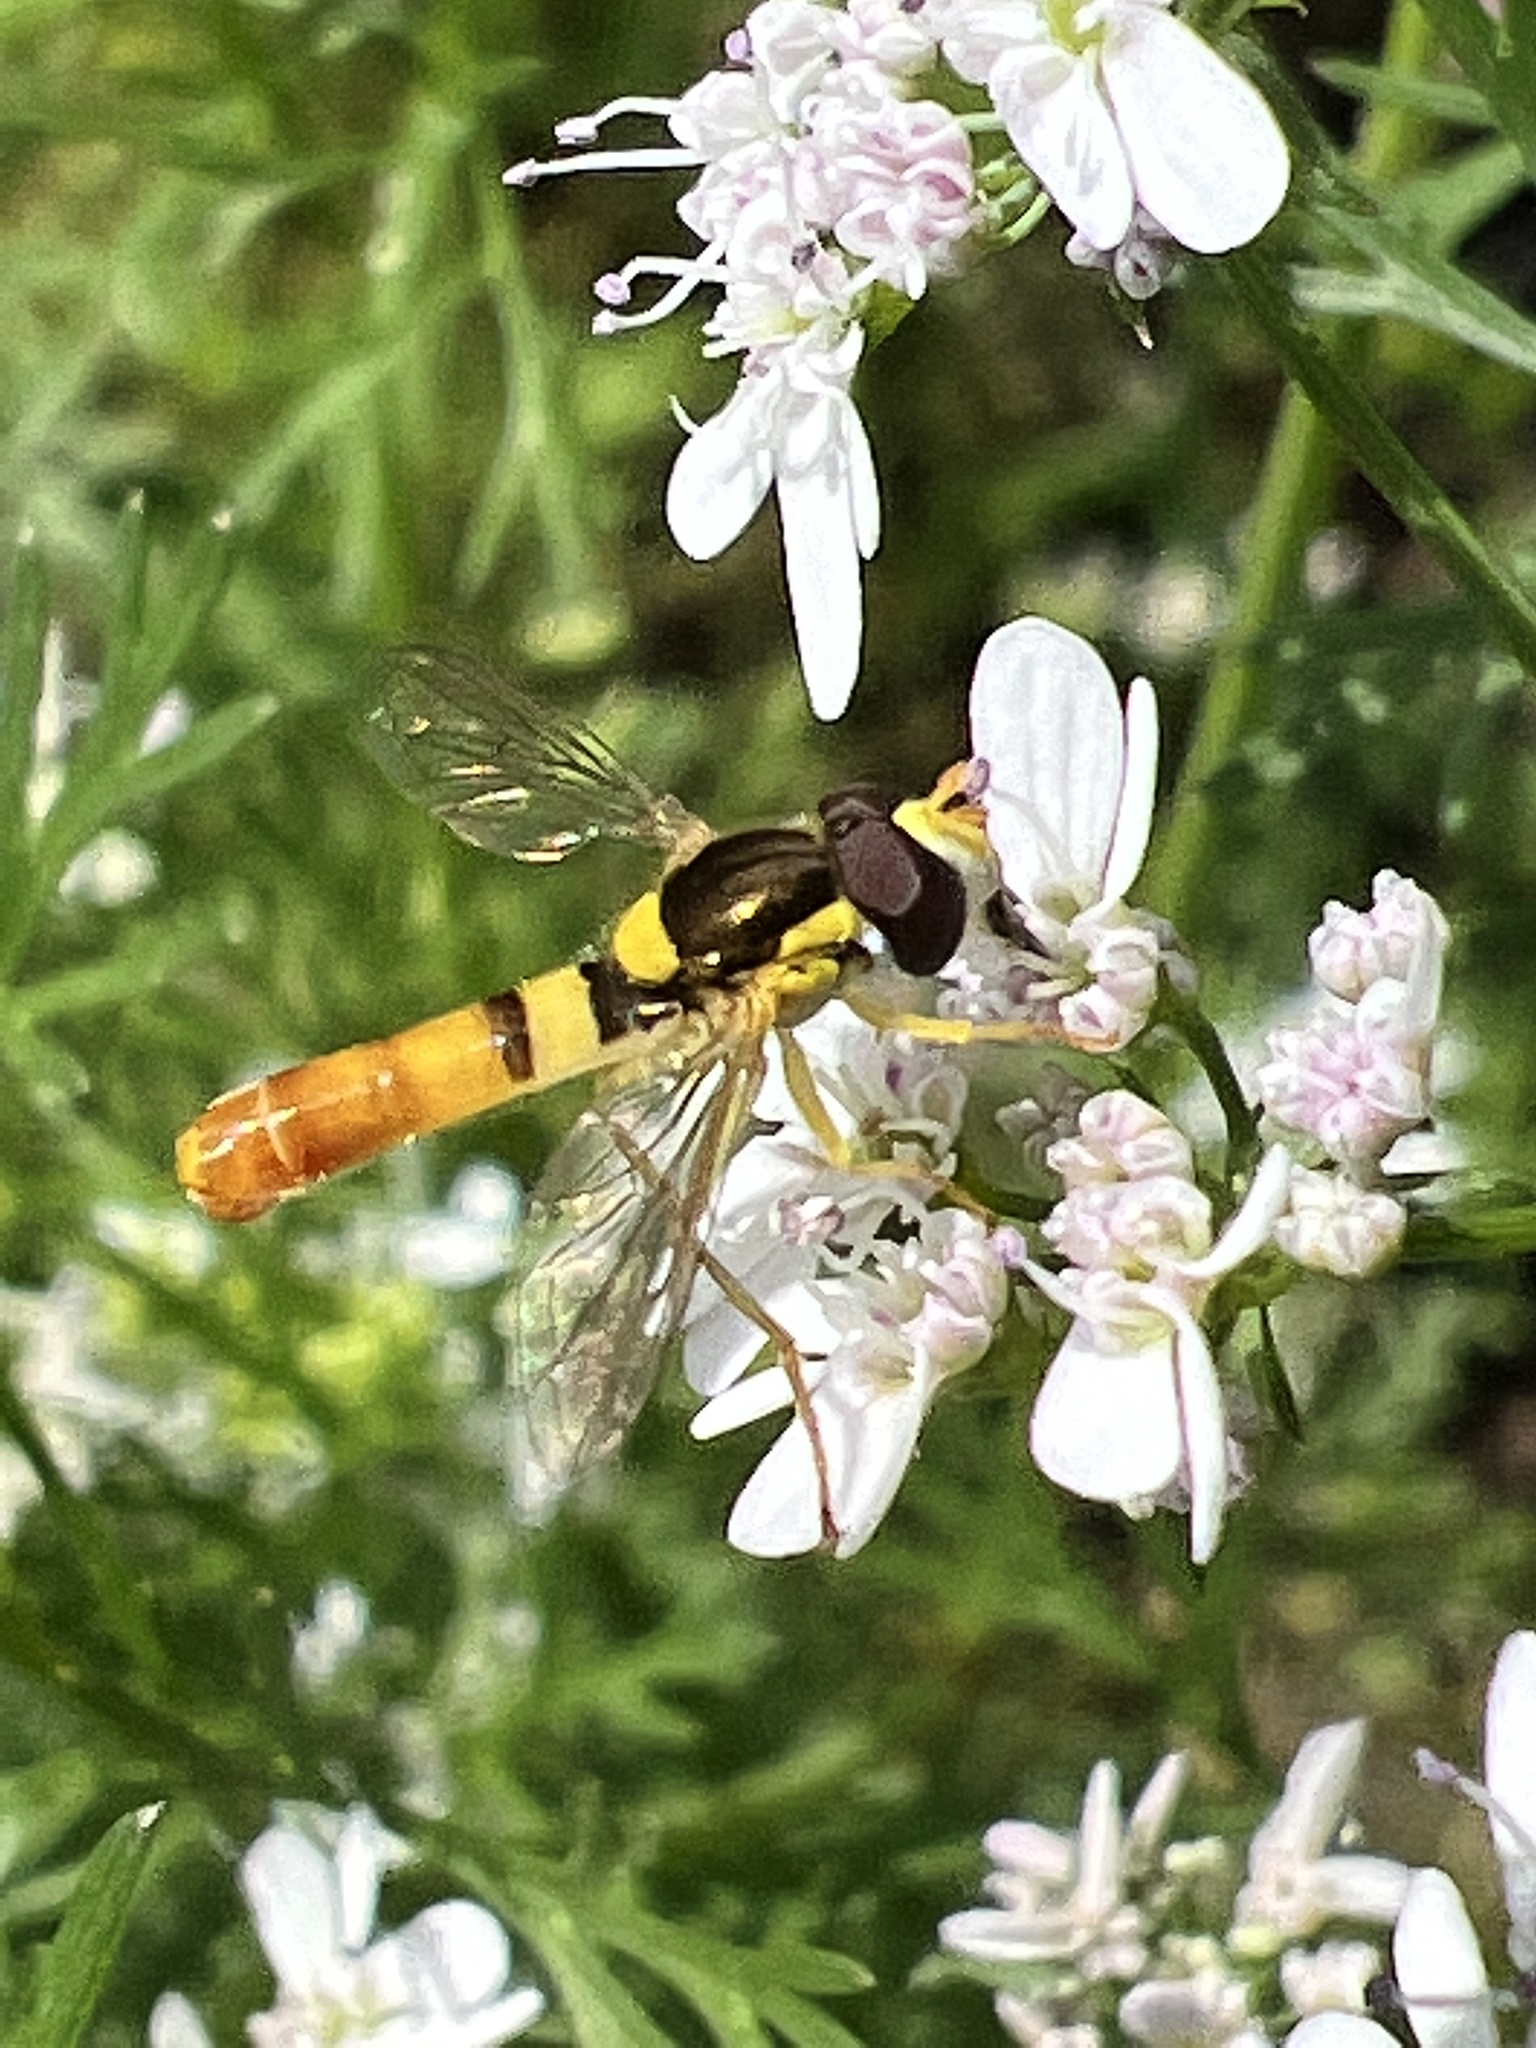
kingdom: Animalia
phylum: Arthropoda
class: Insecta
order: Diptera
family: Syrphidae
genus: Sphaerophoria
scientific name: Sphaerophoria contigua
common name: Tufted globetail
